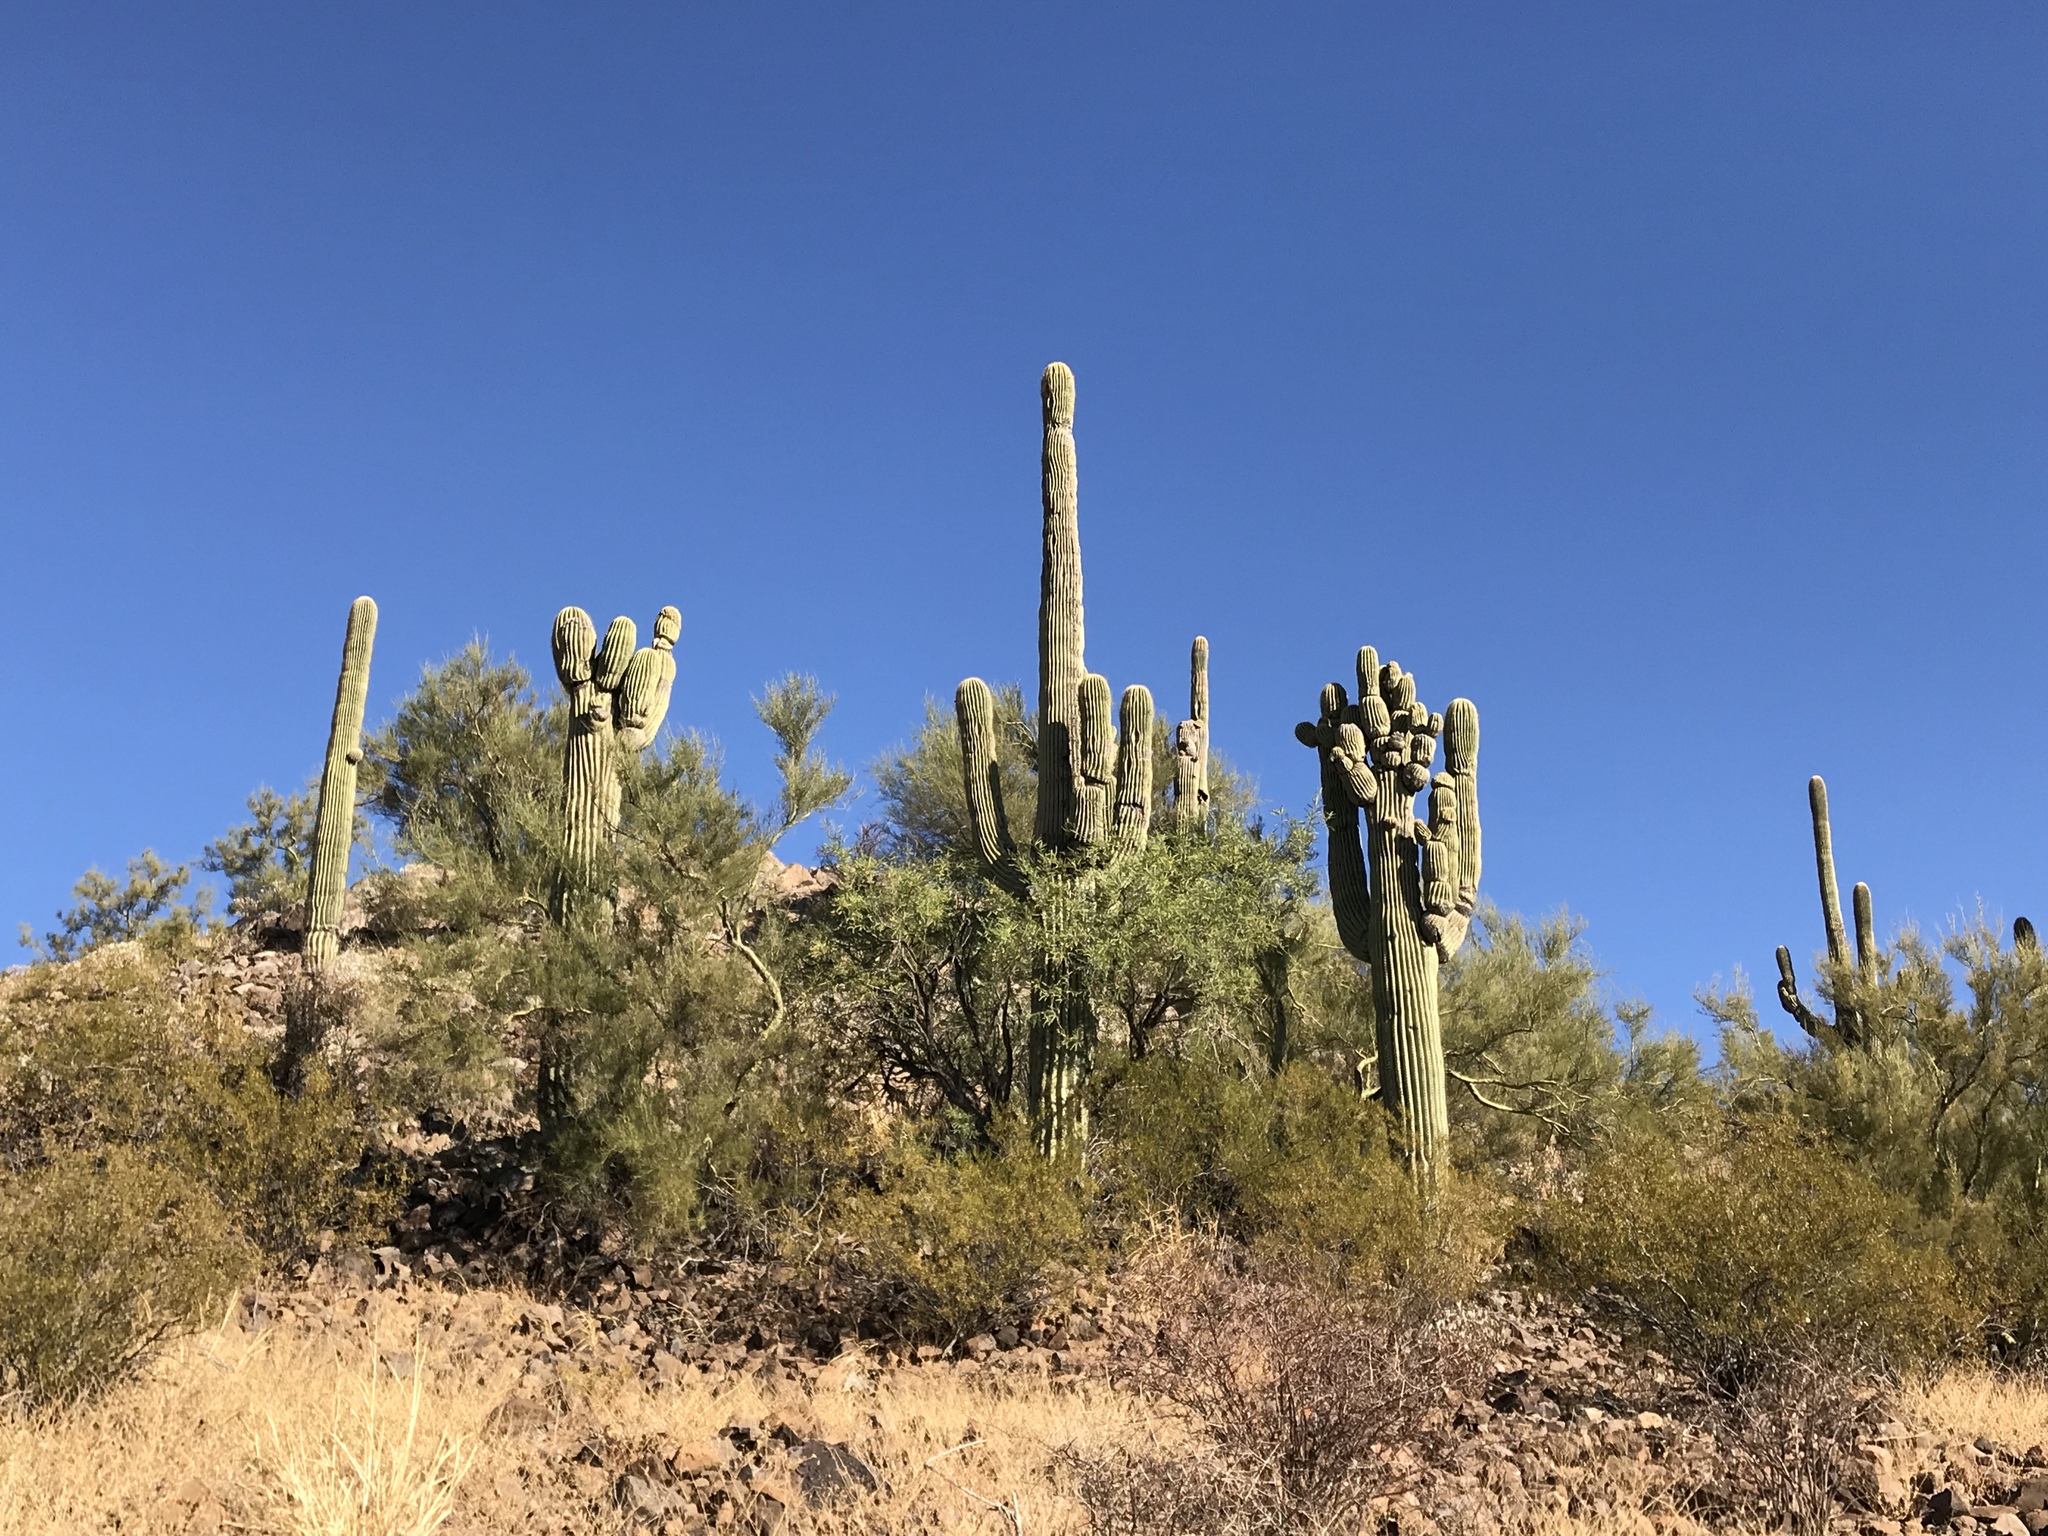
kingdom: Plantae
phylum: Tracheophyta
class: Magnoliopsida
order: Caryophyllales
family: Cactaceae
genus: Carnegiea
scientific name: Carnegiea gigantea
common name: Saguaro
